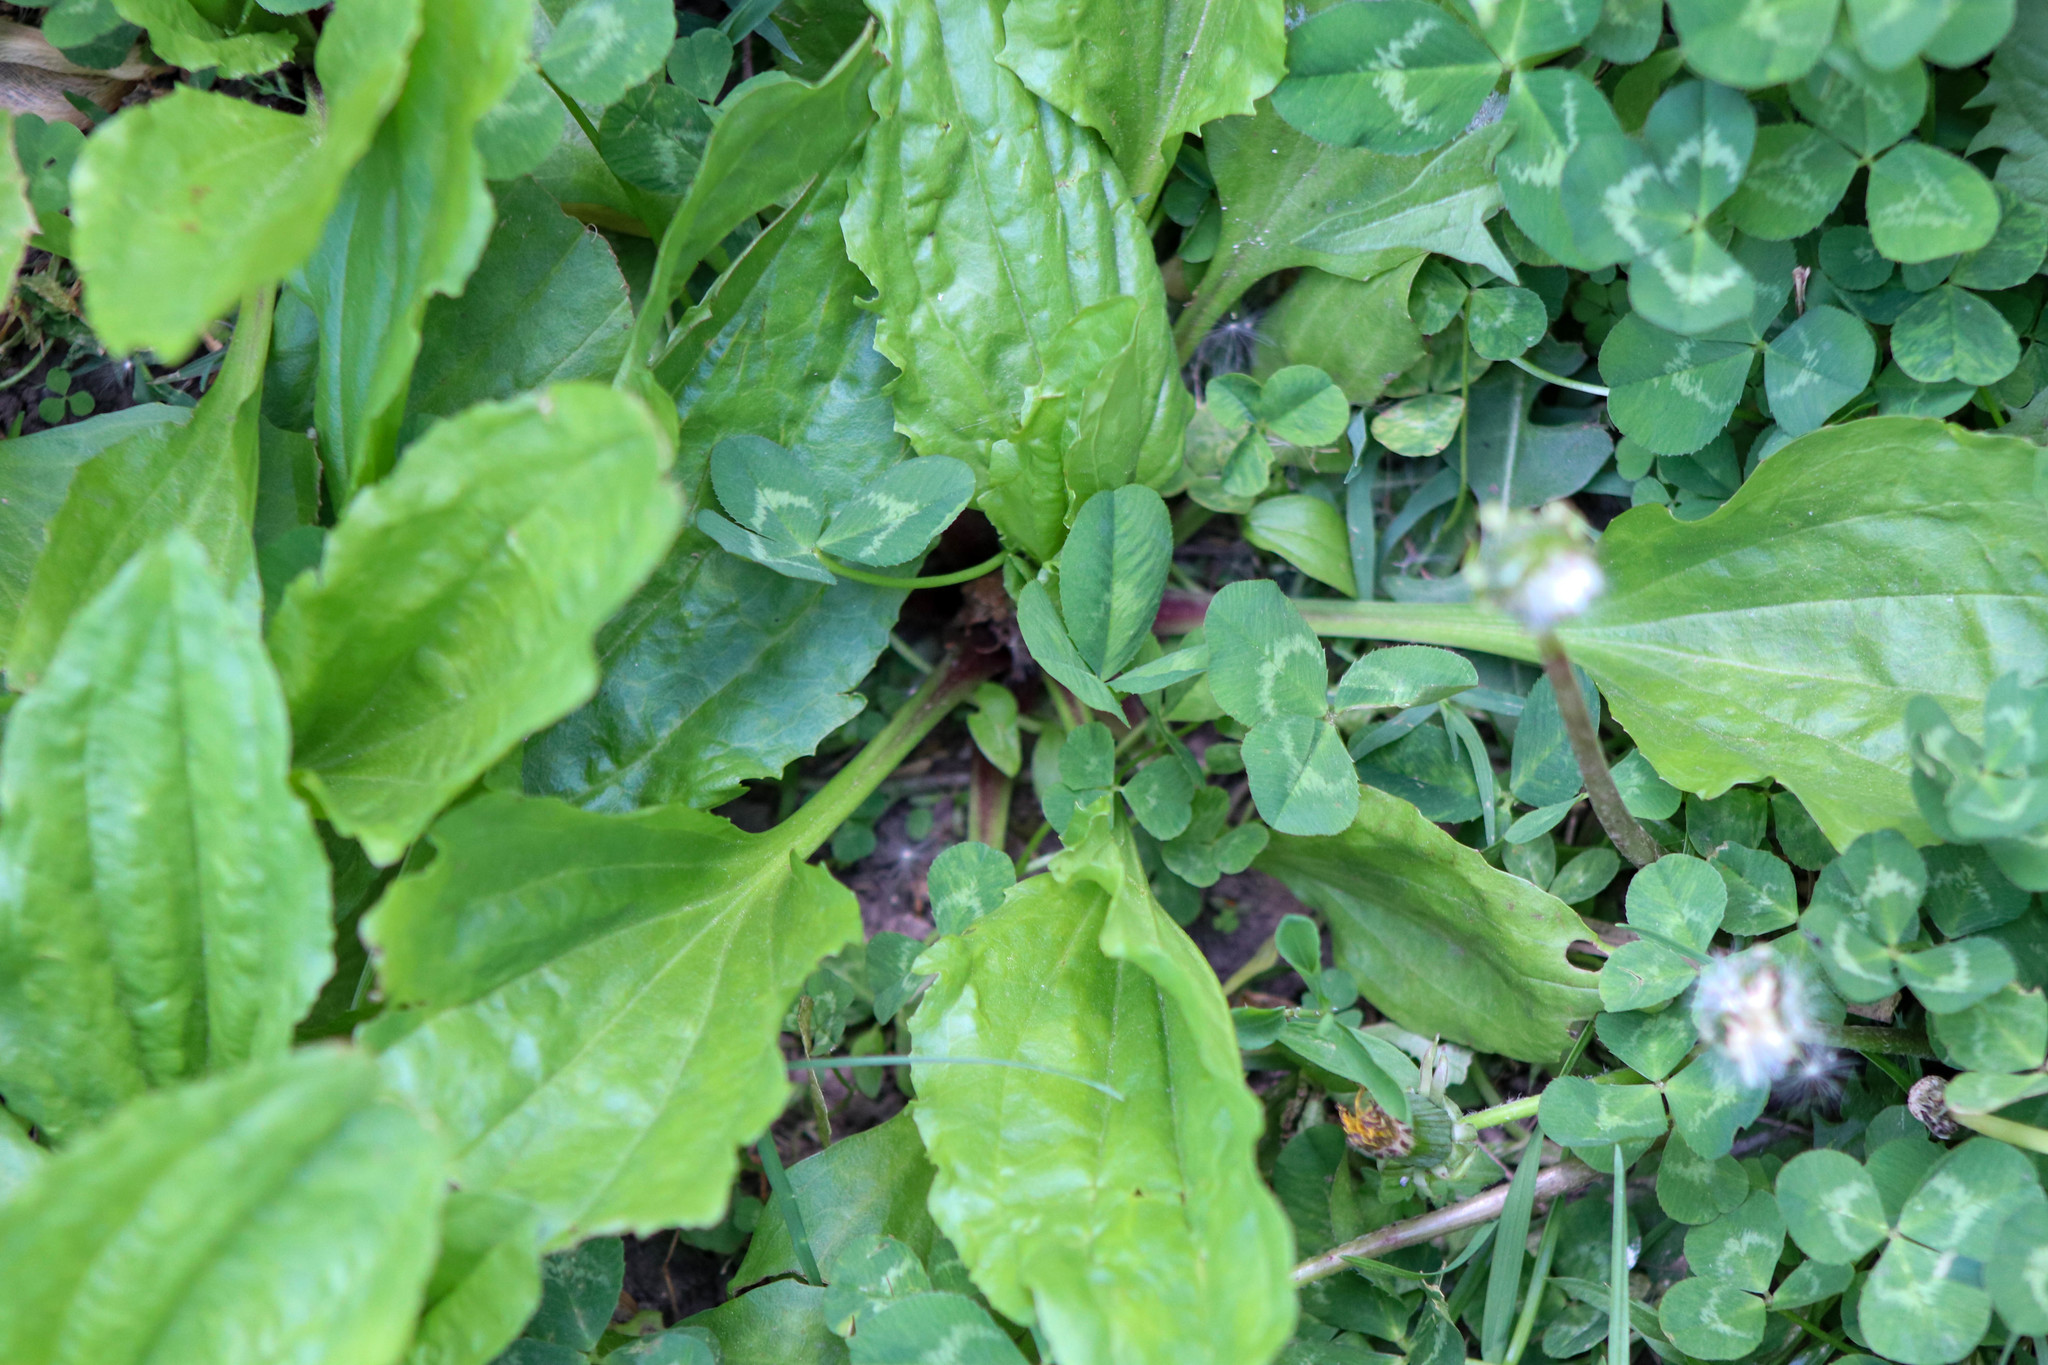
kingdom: Plantae
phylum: Tracheophyta
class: Magnoliopsida
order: Lamiales
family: Plantaginaceae
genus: Plantago
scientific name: Plantago rugelii
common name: American plantain
